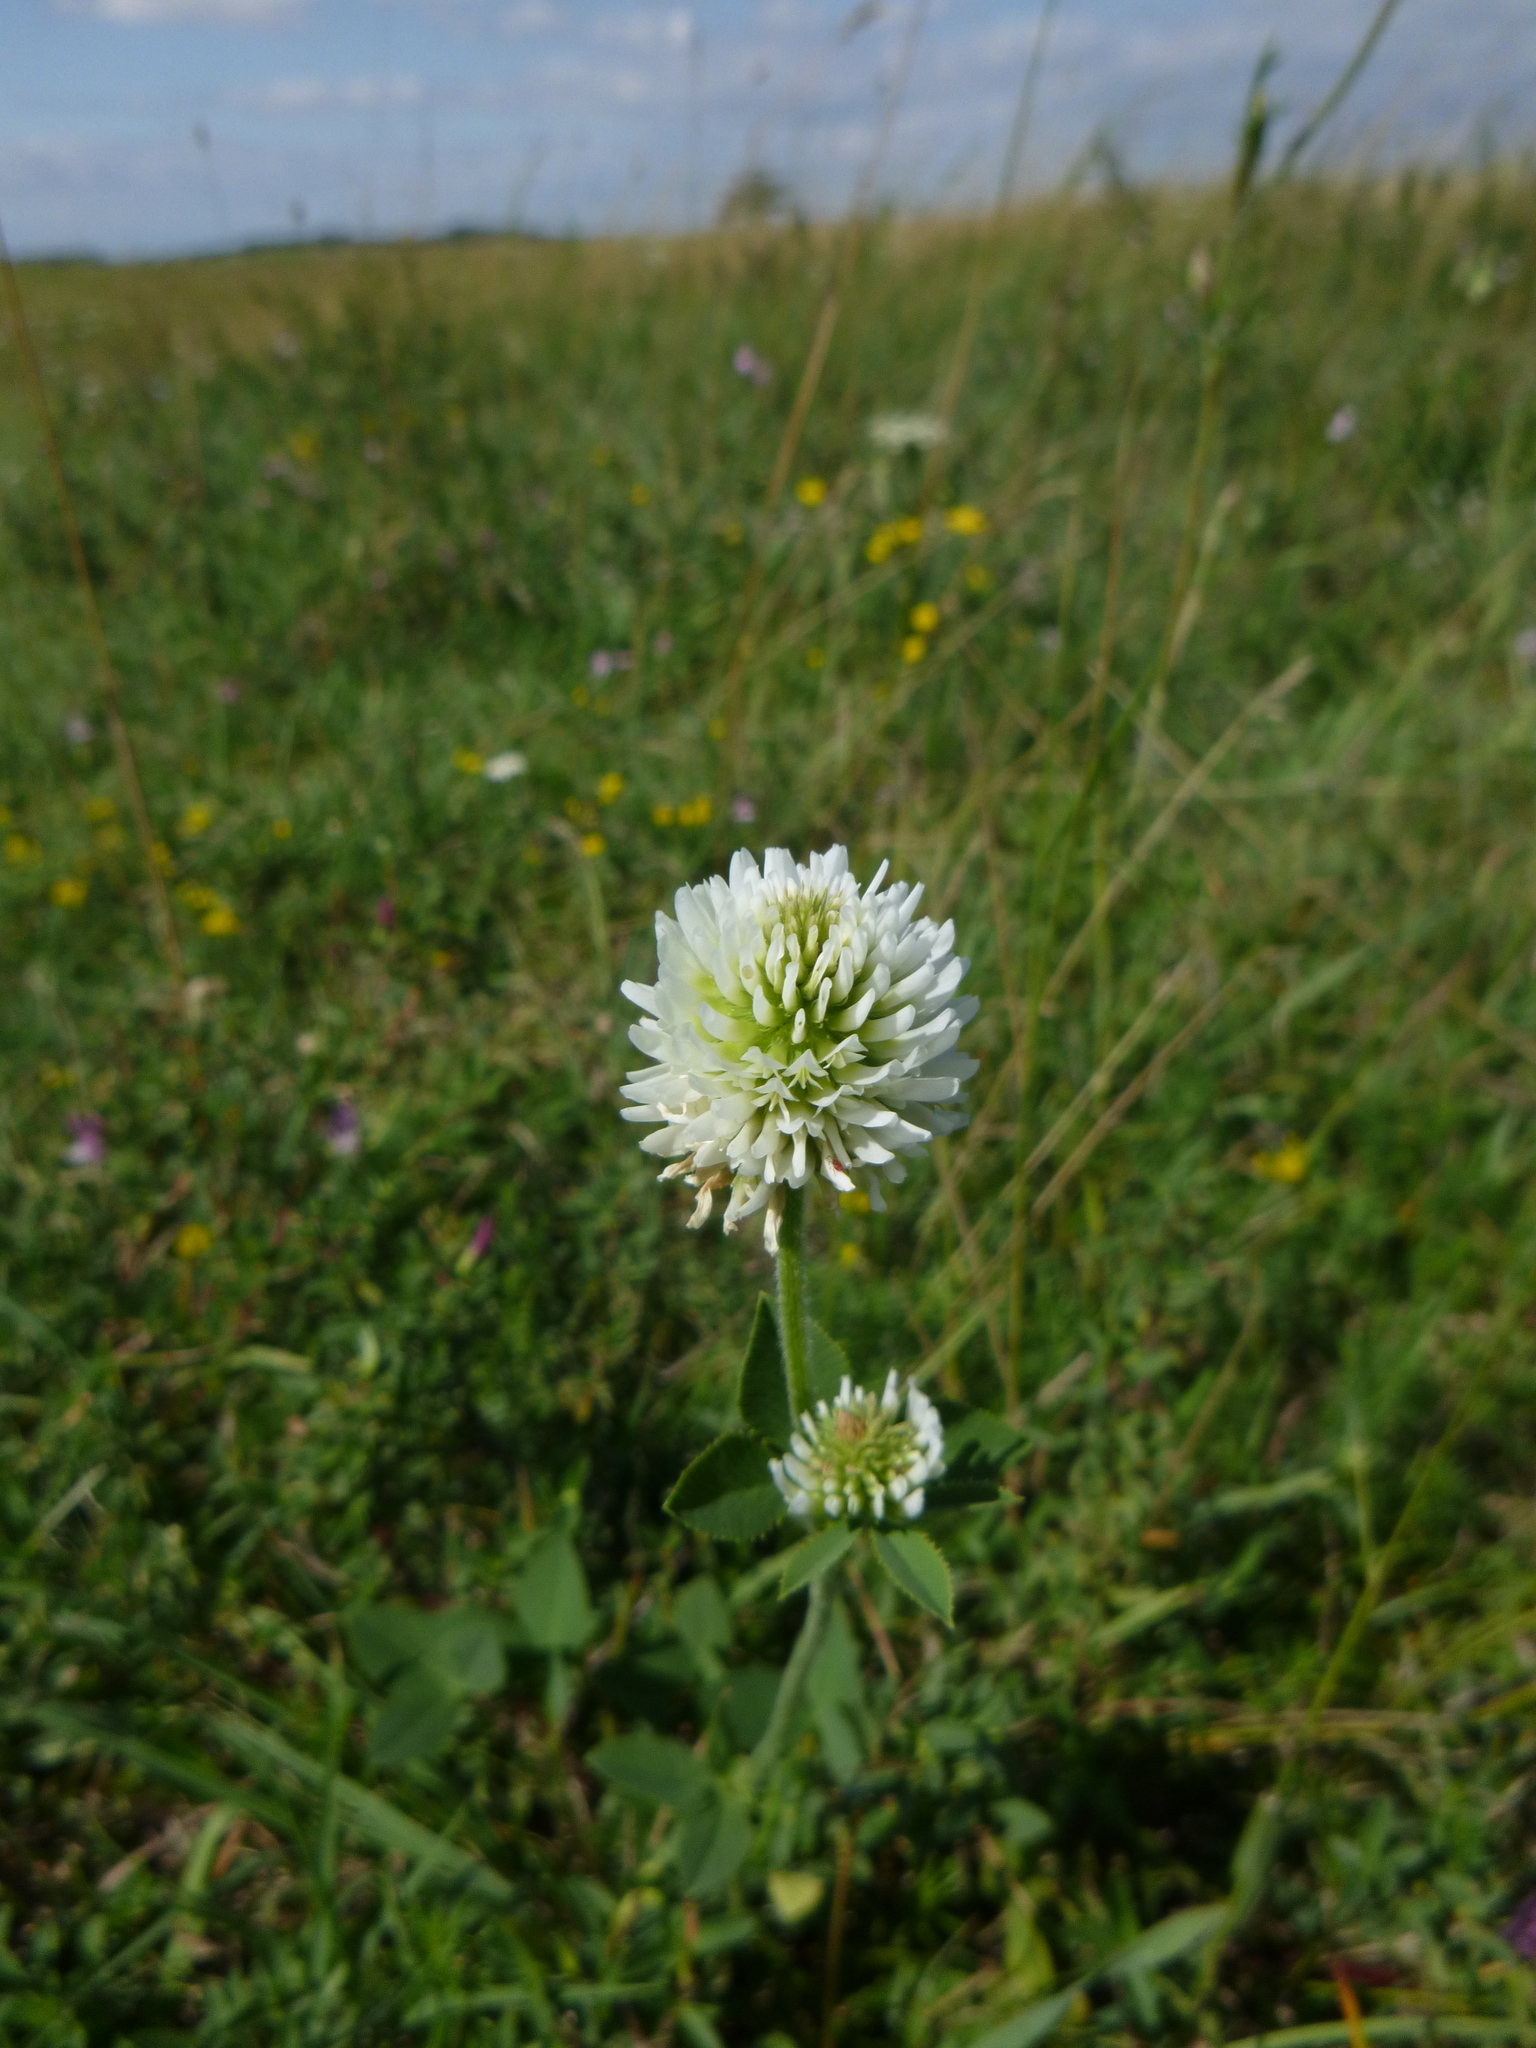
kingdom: Plantae
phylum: Tracheophyta
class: Magnoliopsida
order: Fabales
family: Fabaceae
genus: Trifolium
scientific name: Trifolium montanum
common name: Mountain clover
